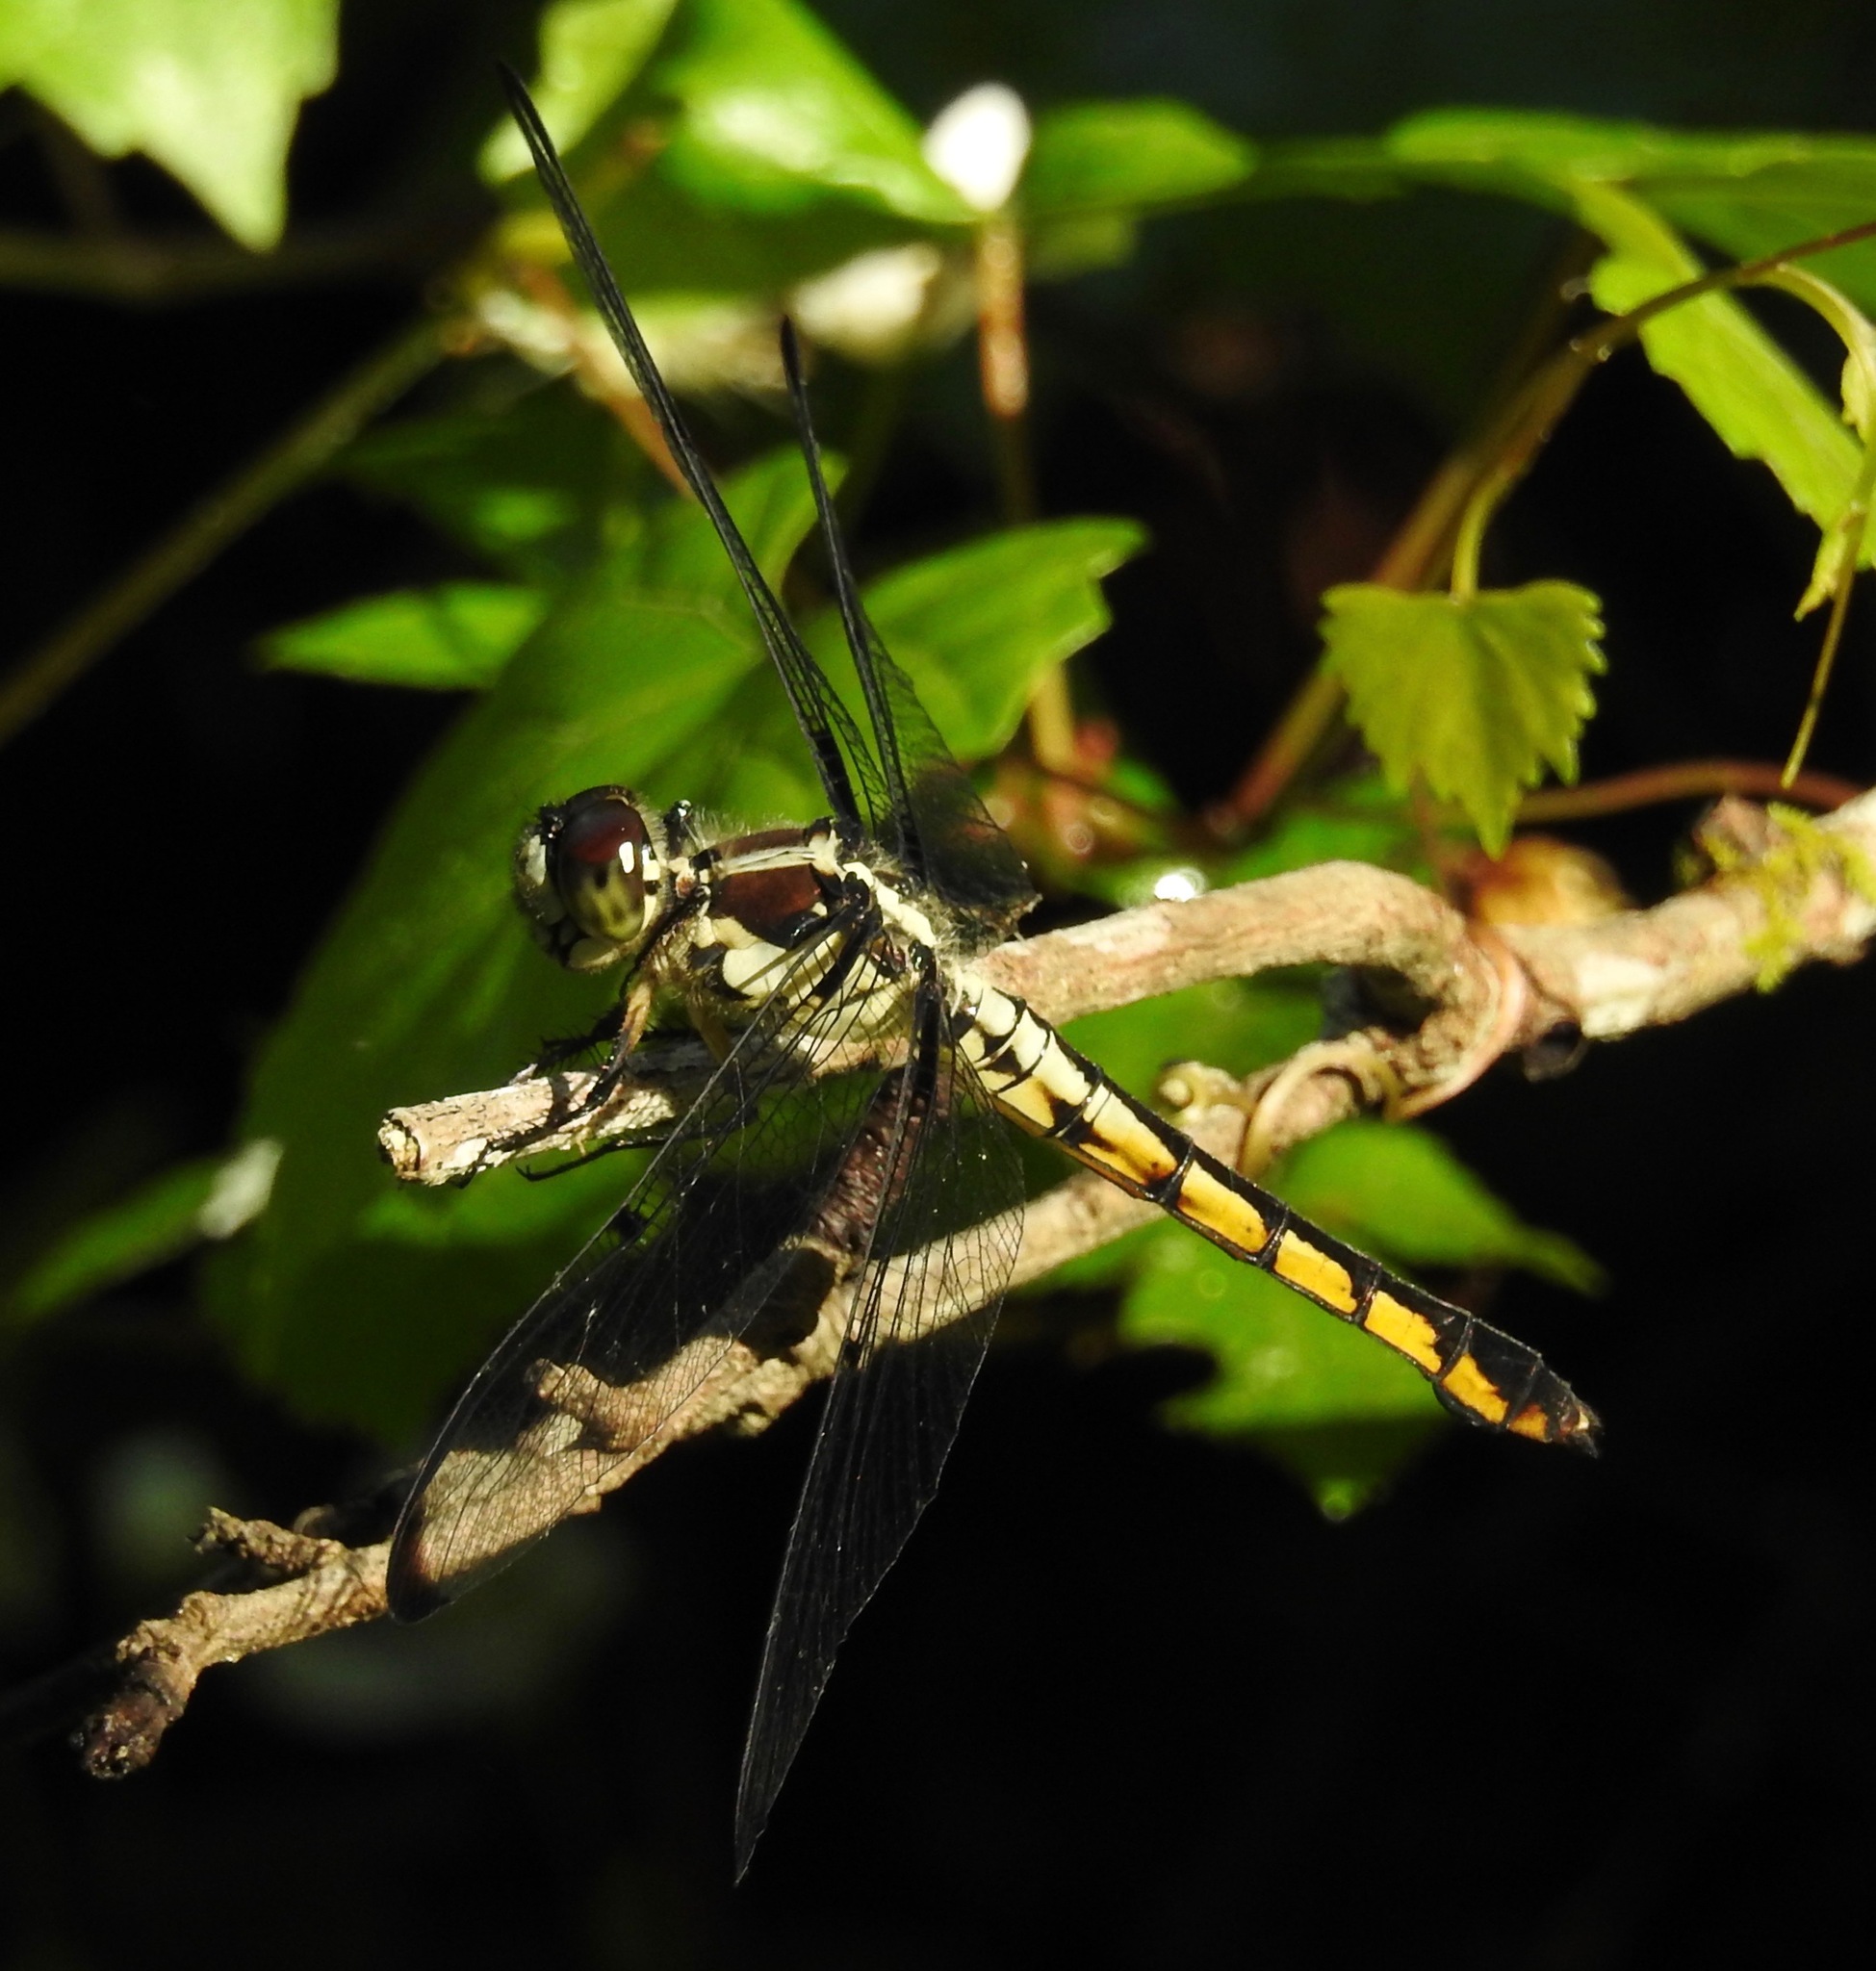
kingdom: Animalia
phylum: Arthropoda
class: Insecta
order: Odonata
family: Libellulidae
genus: Libellula
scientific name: Libellula vibrans
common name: Great blue skimmer
